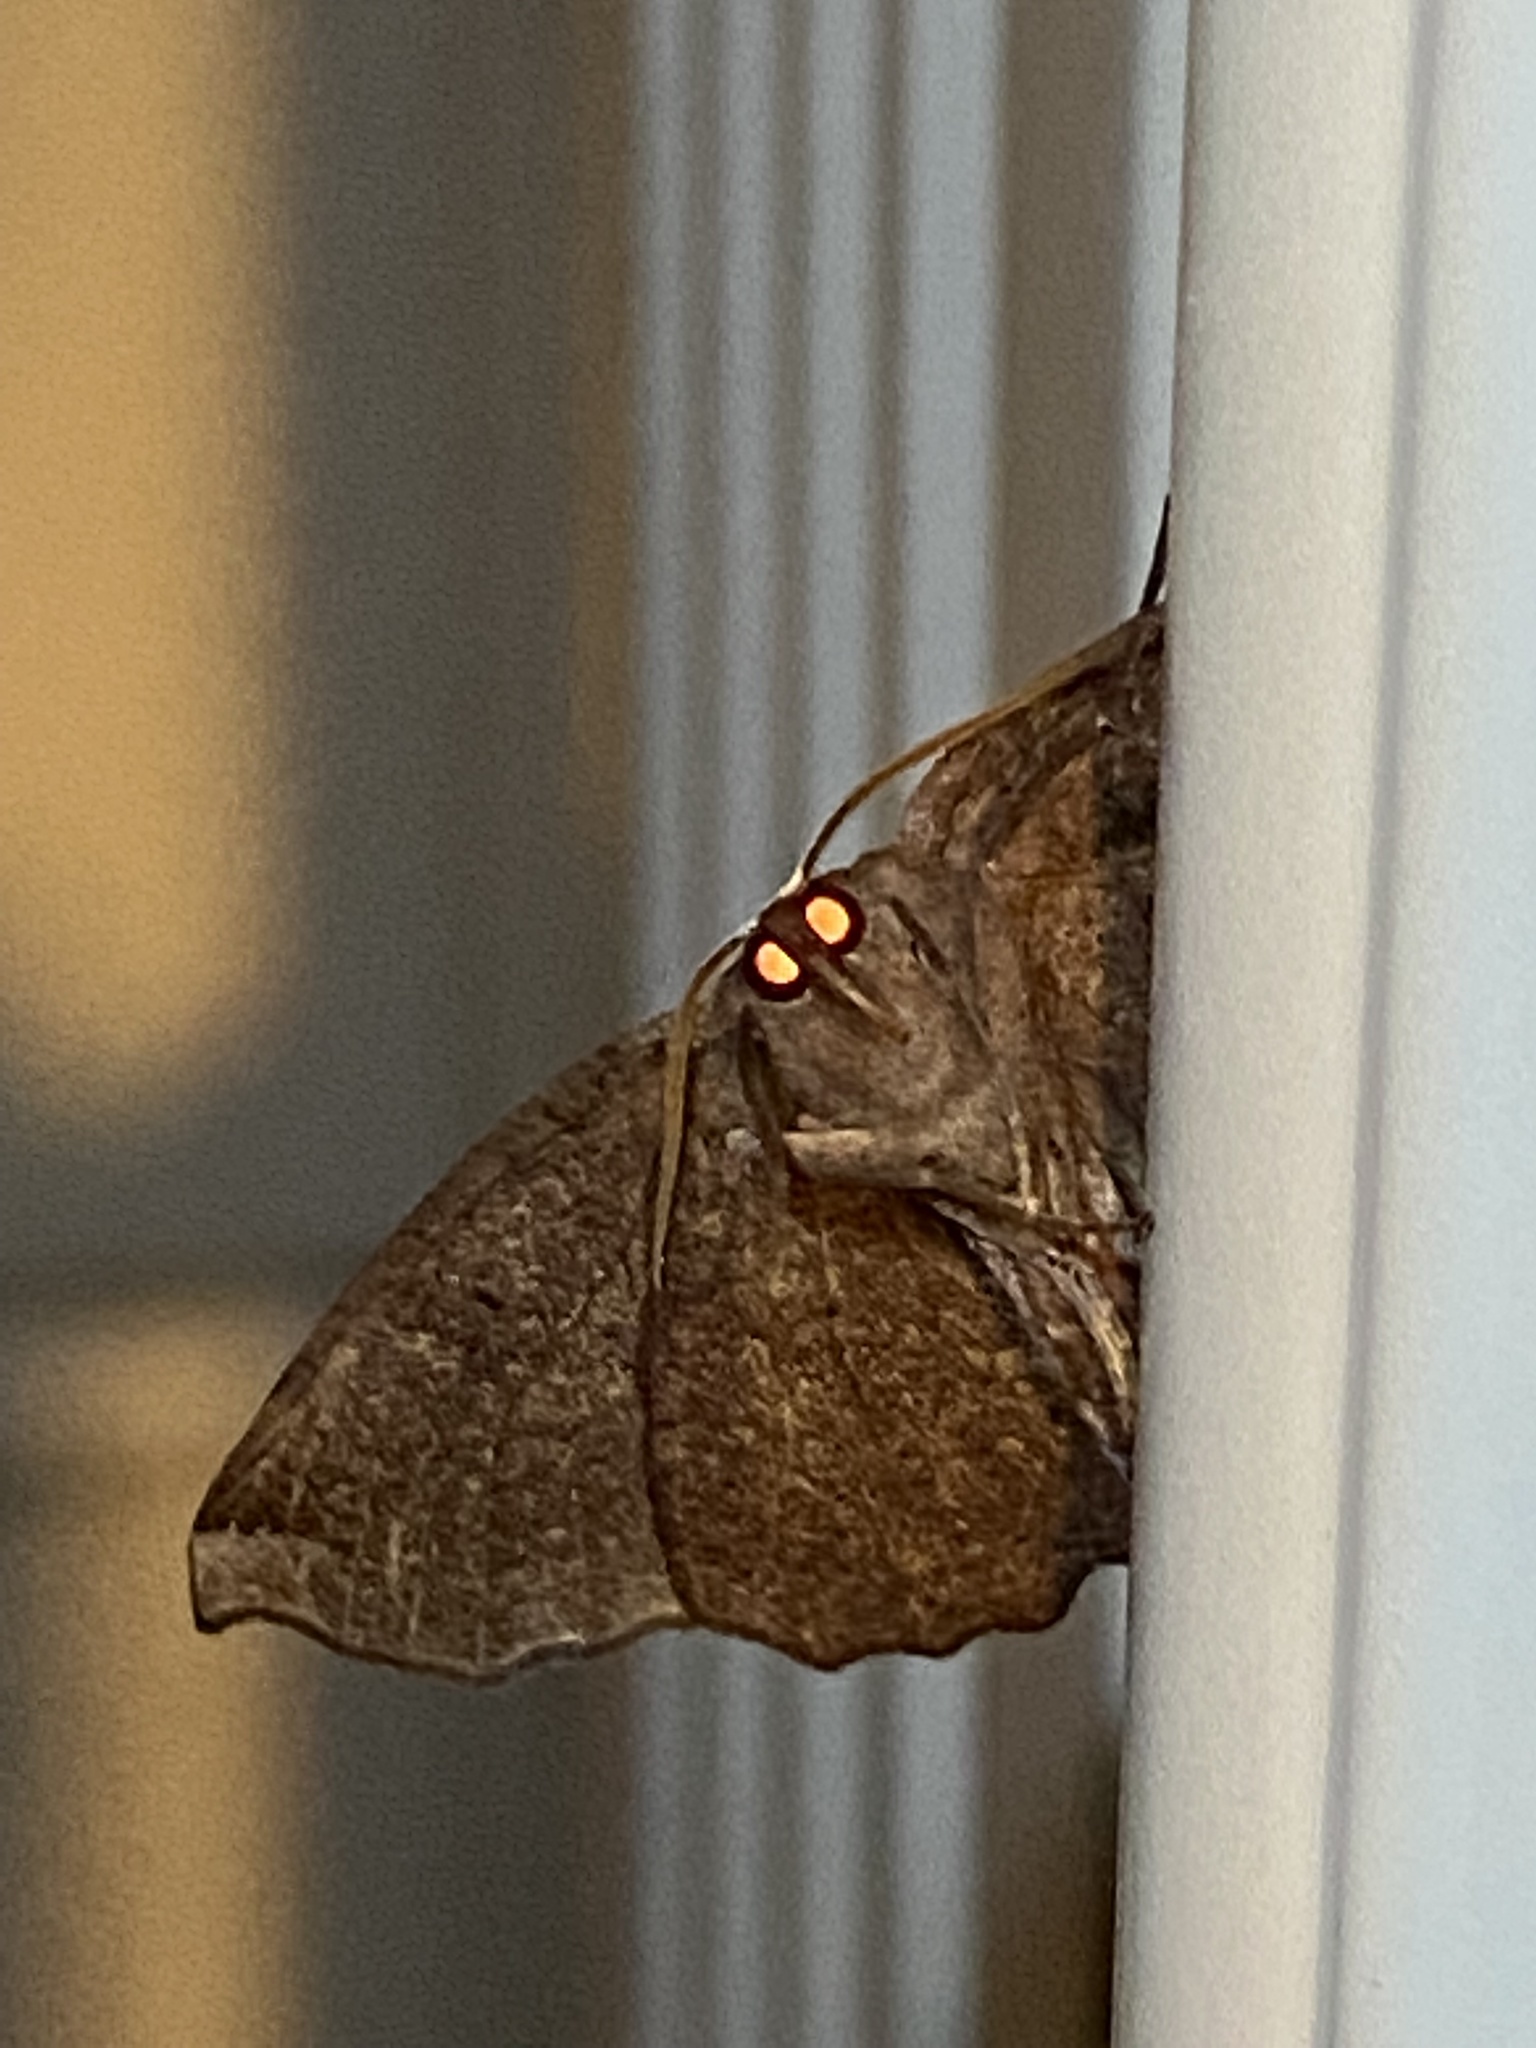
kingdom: Animalia
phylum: Arthropoda
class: Insecta
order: Lepidoptera
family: Geometridae
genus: Eutrapela
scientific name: Eutrapela clemataria
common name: Curved-toothed geometer
